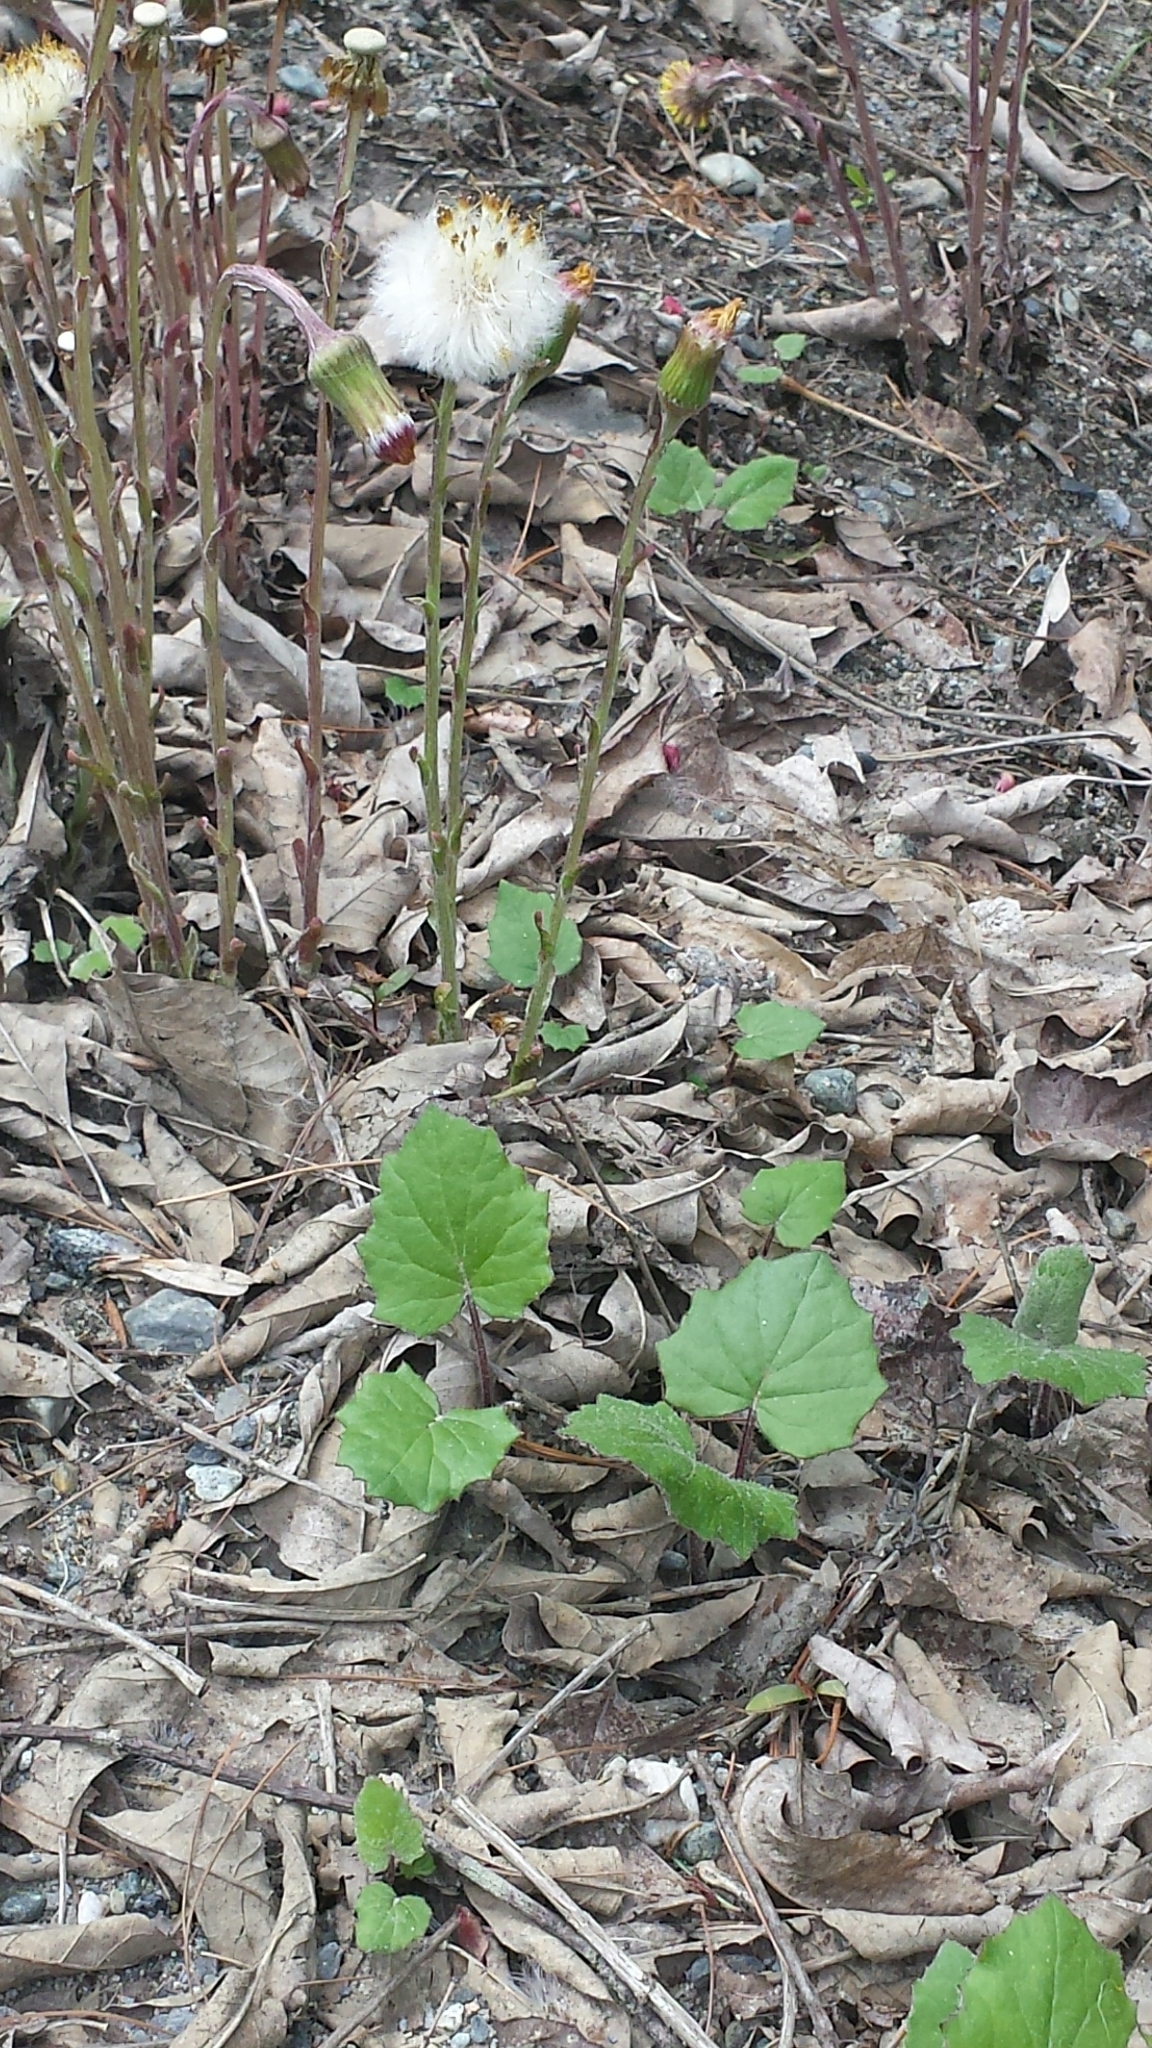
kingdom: Plantae
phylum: Tracheophyta
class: Magnoliopsida
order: Asterales
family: Asteraceae
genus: Tussilago
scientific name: Tussilago farfara
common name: Coltsfoot
